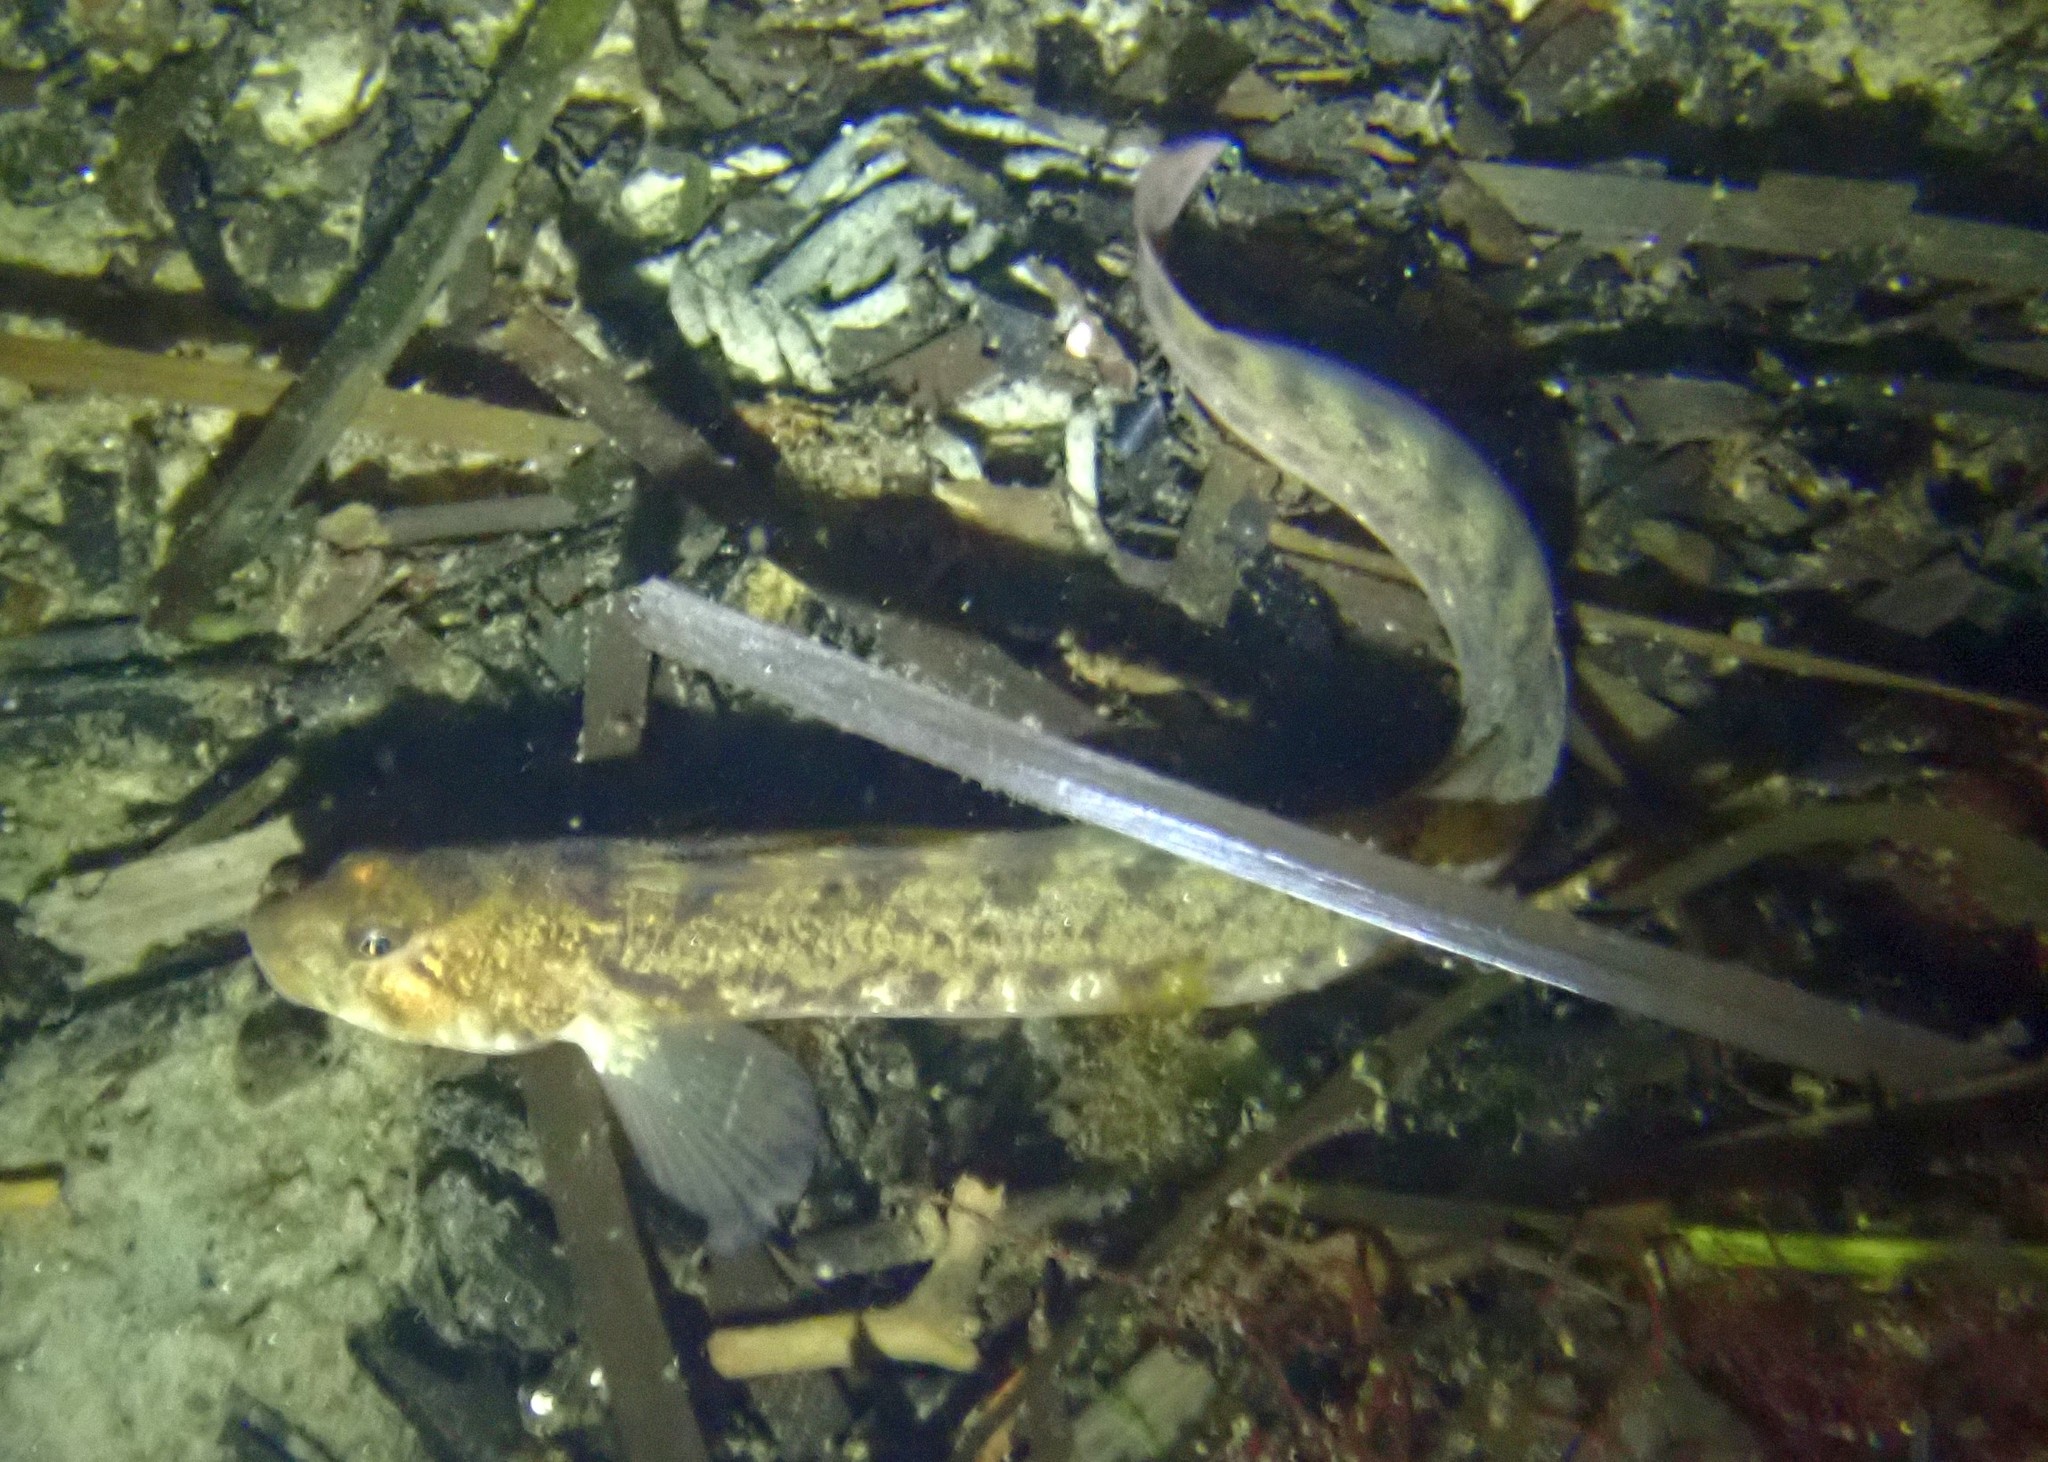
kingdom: Animalia
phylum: Chordata
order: Perciformes
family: Zoarcidae
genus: Zoarces
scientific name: Zoarces viviparus
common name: Viviparous blenny
